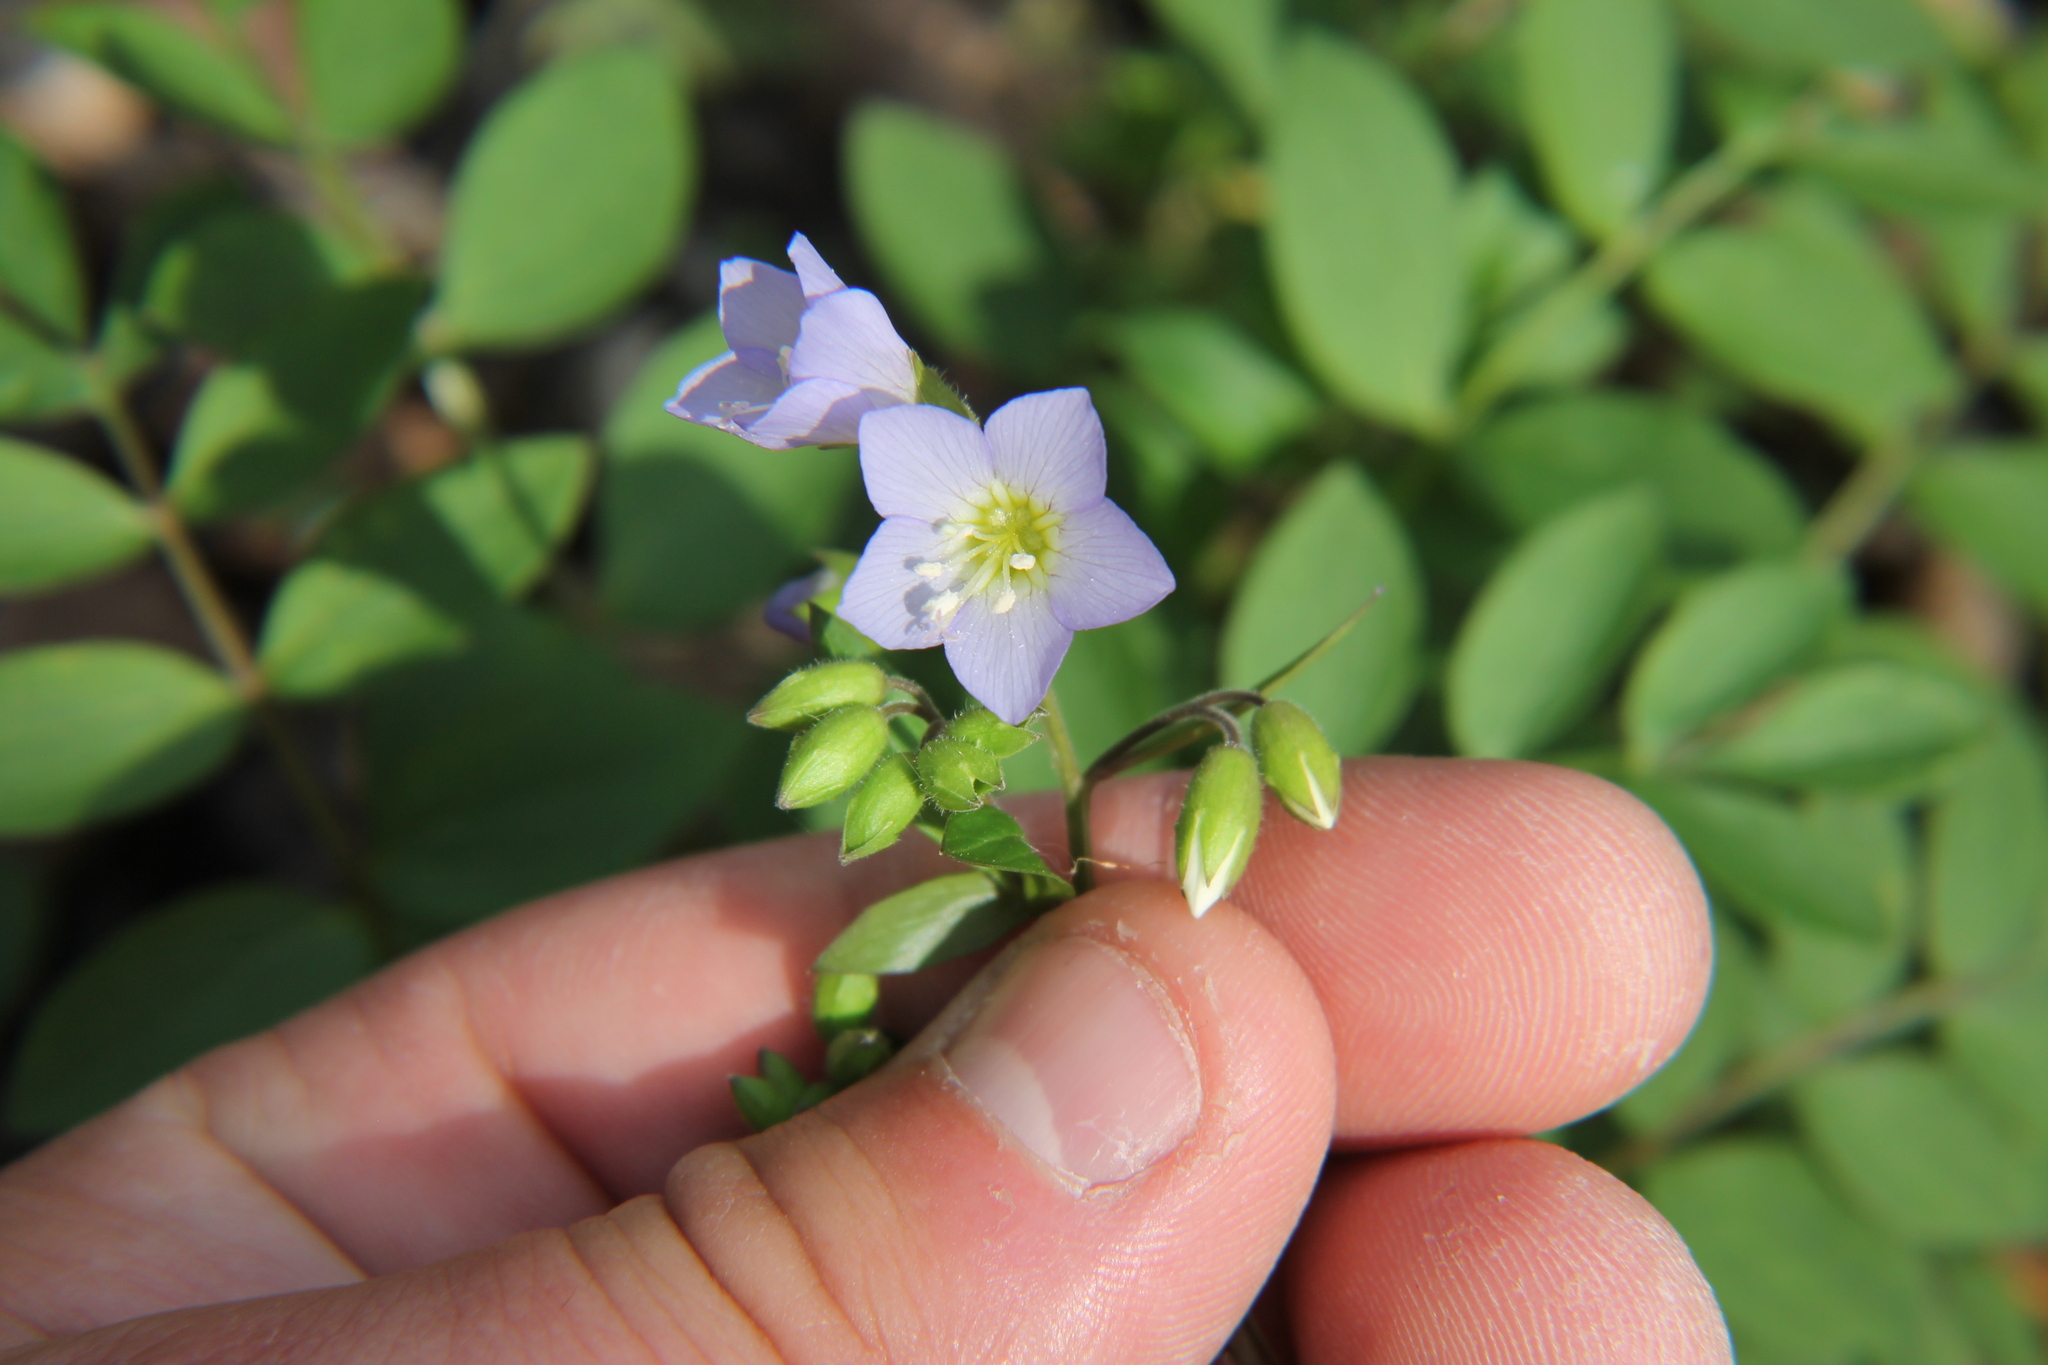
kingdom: Plantae
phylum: Tracheophyta
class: Magnoliopsida
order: Ericales
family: Polemoniaceae
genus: Polemonium
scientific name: Polemonium reptans
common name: Creeping jacob's-ladder
